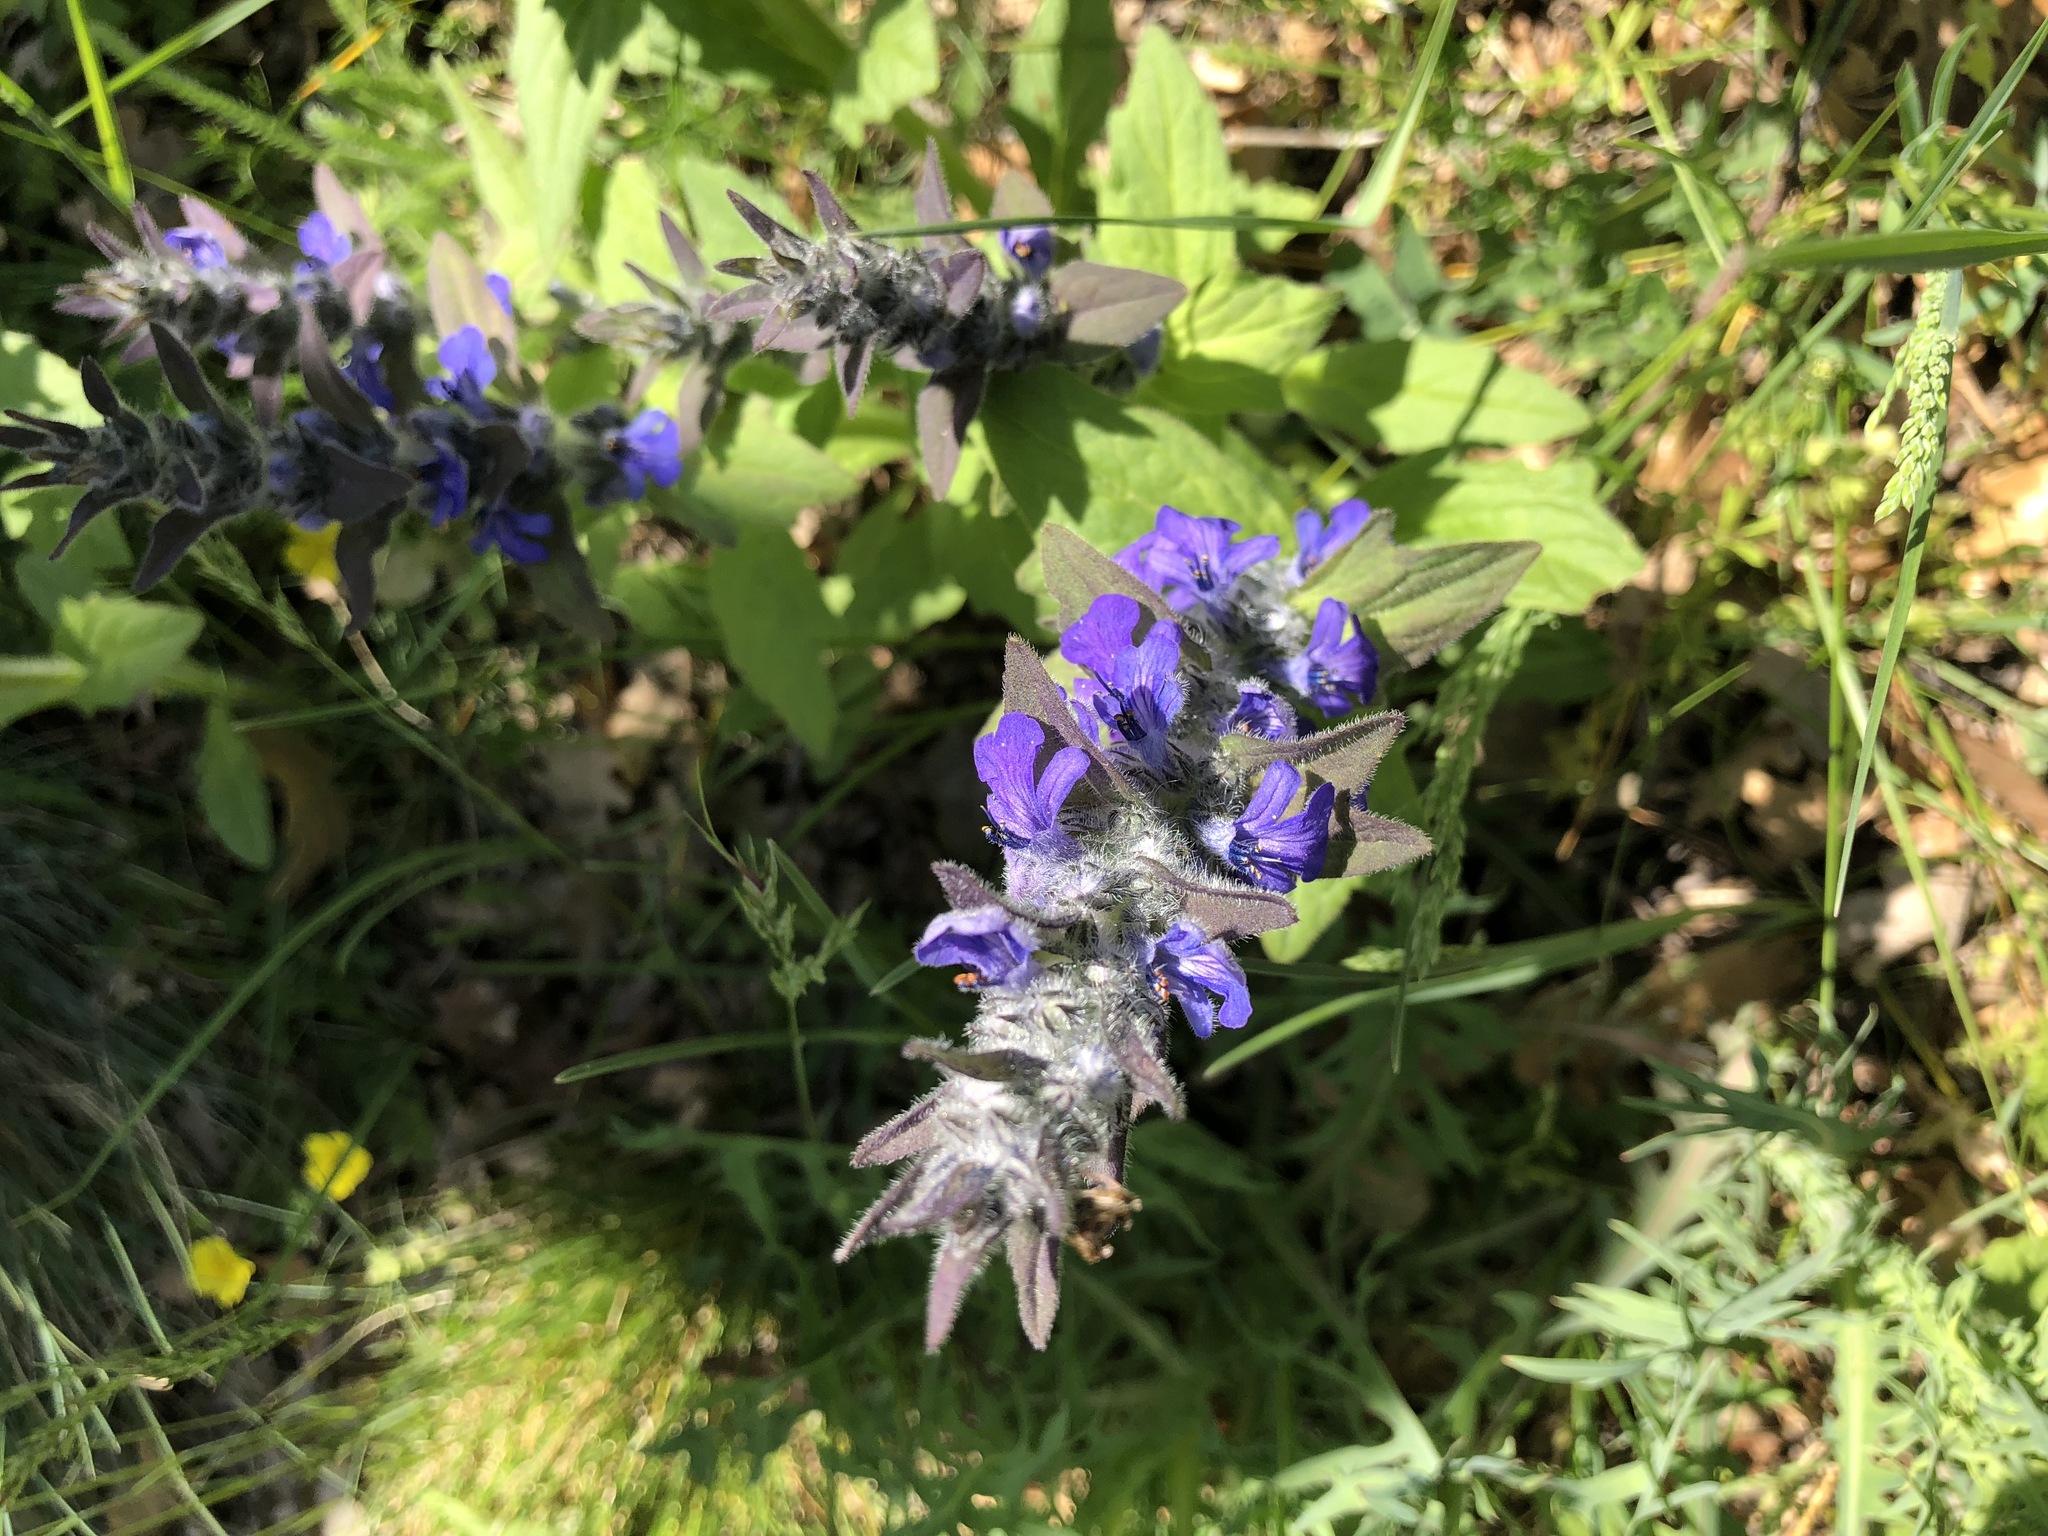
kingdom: Plantae
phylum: Tracheophyta
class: Magnoliopsida
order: Lamiales
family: Lamiaceae
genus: Ajuga
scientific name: Ajuga genevensis
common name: Blue bugle
